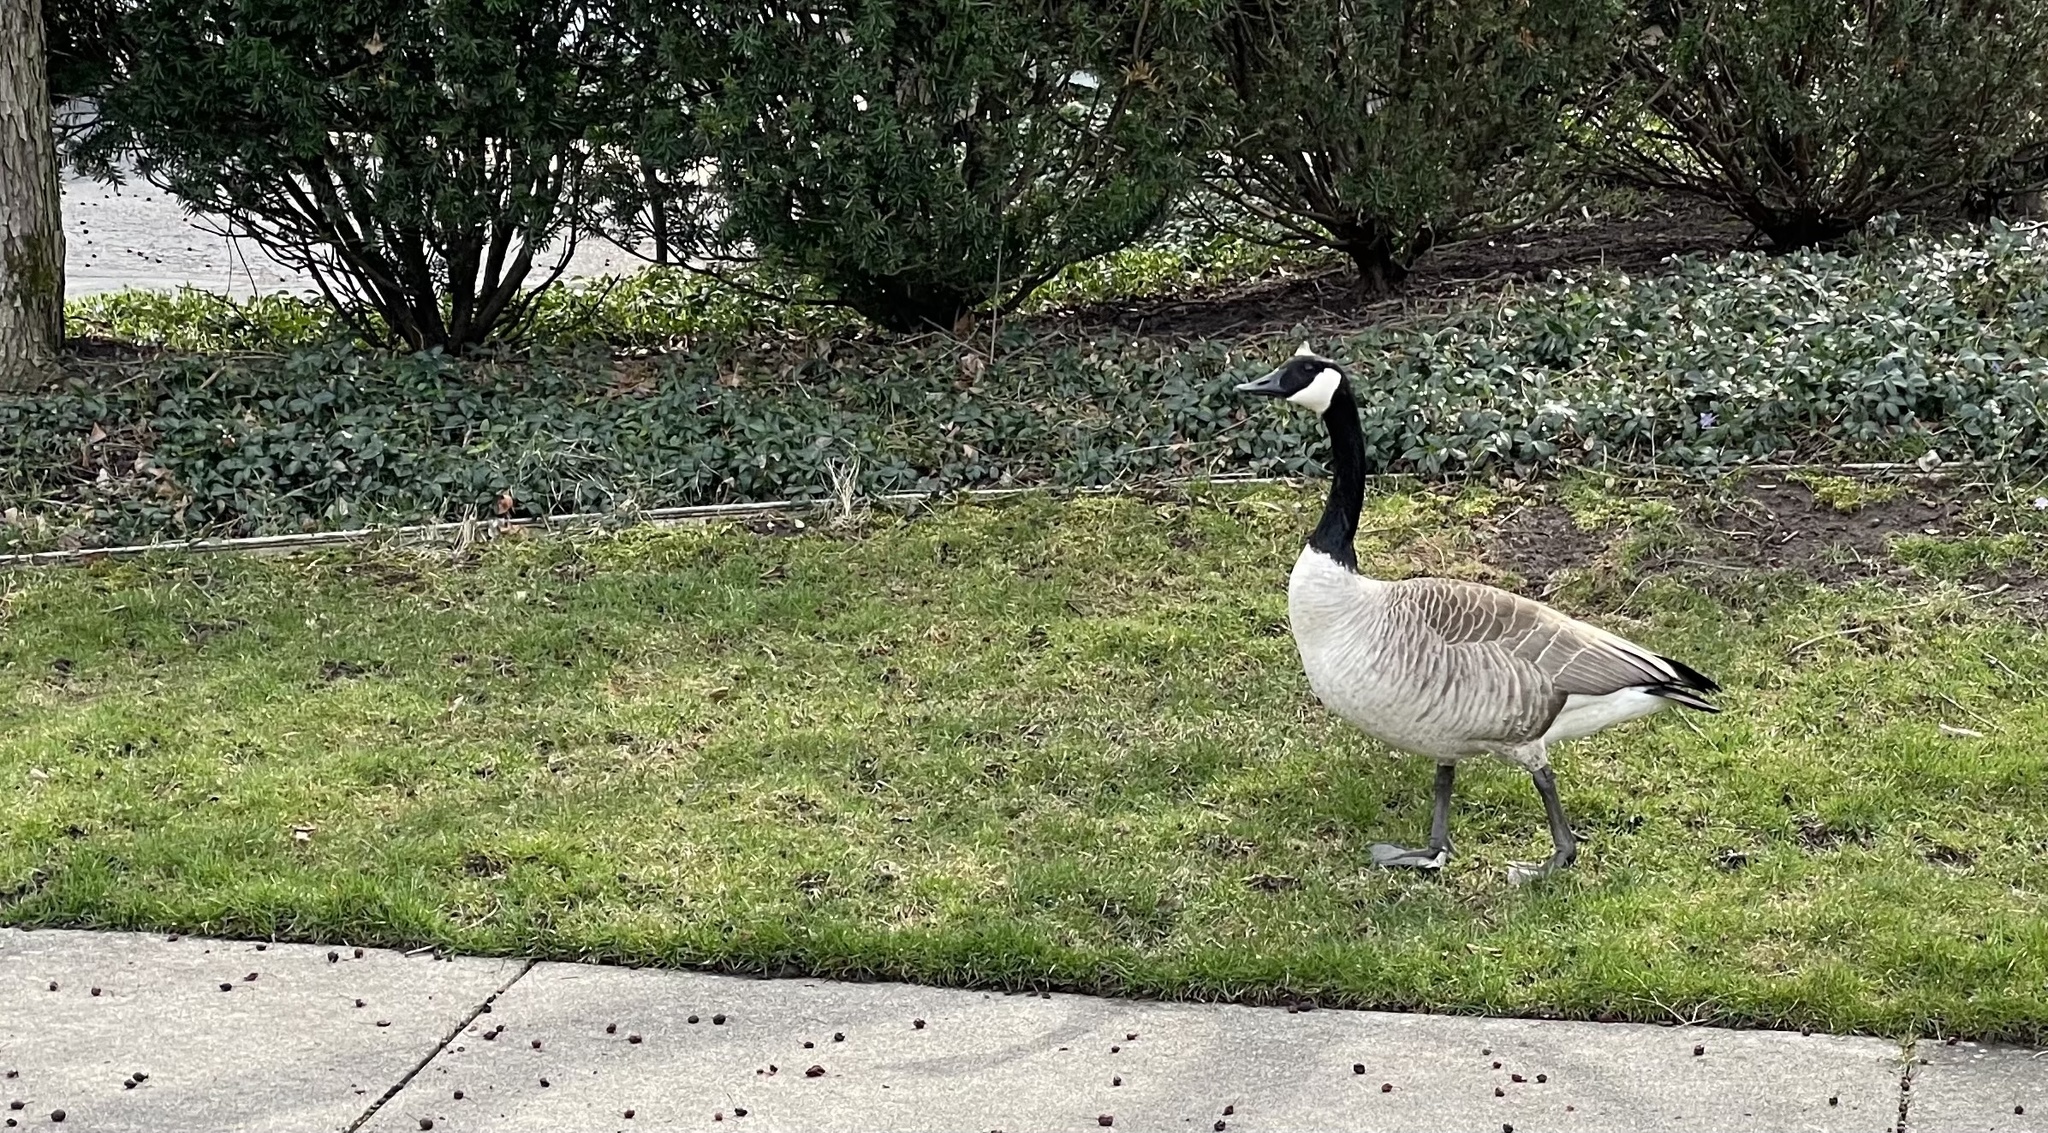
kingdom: Animalia
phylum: Chordata
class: Aves
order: Anseriformes
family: Anatidae
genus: Branta
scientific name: Branta canadensis
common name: Canada goose
